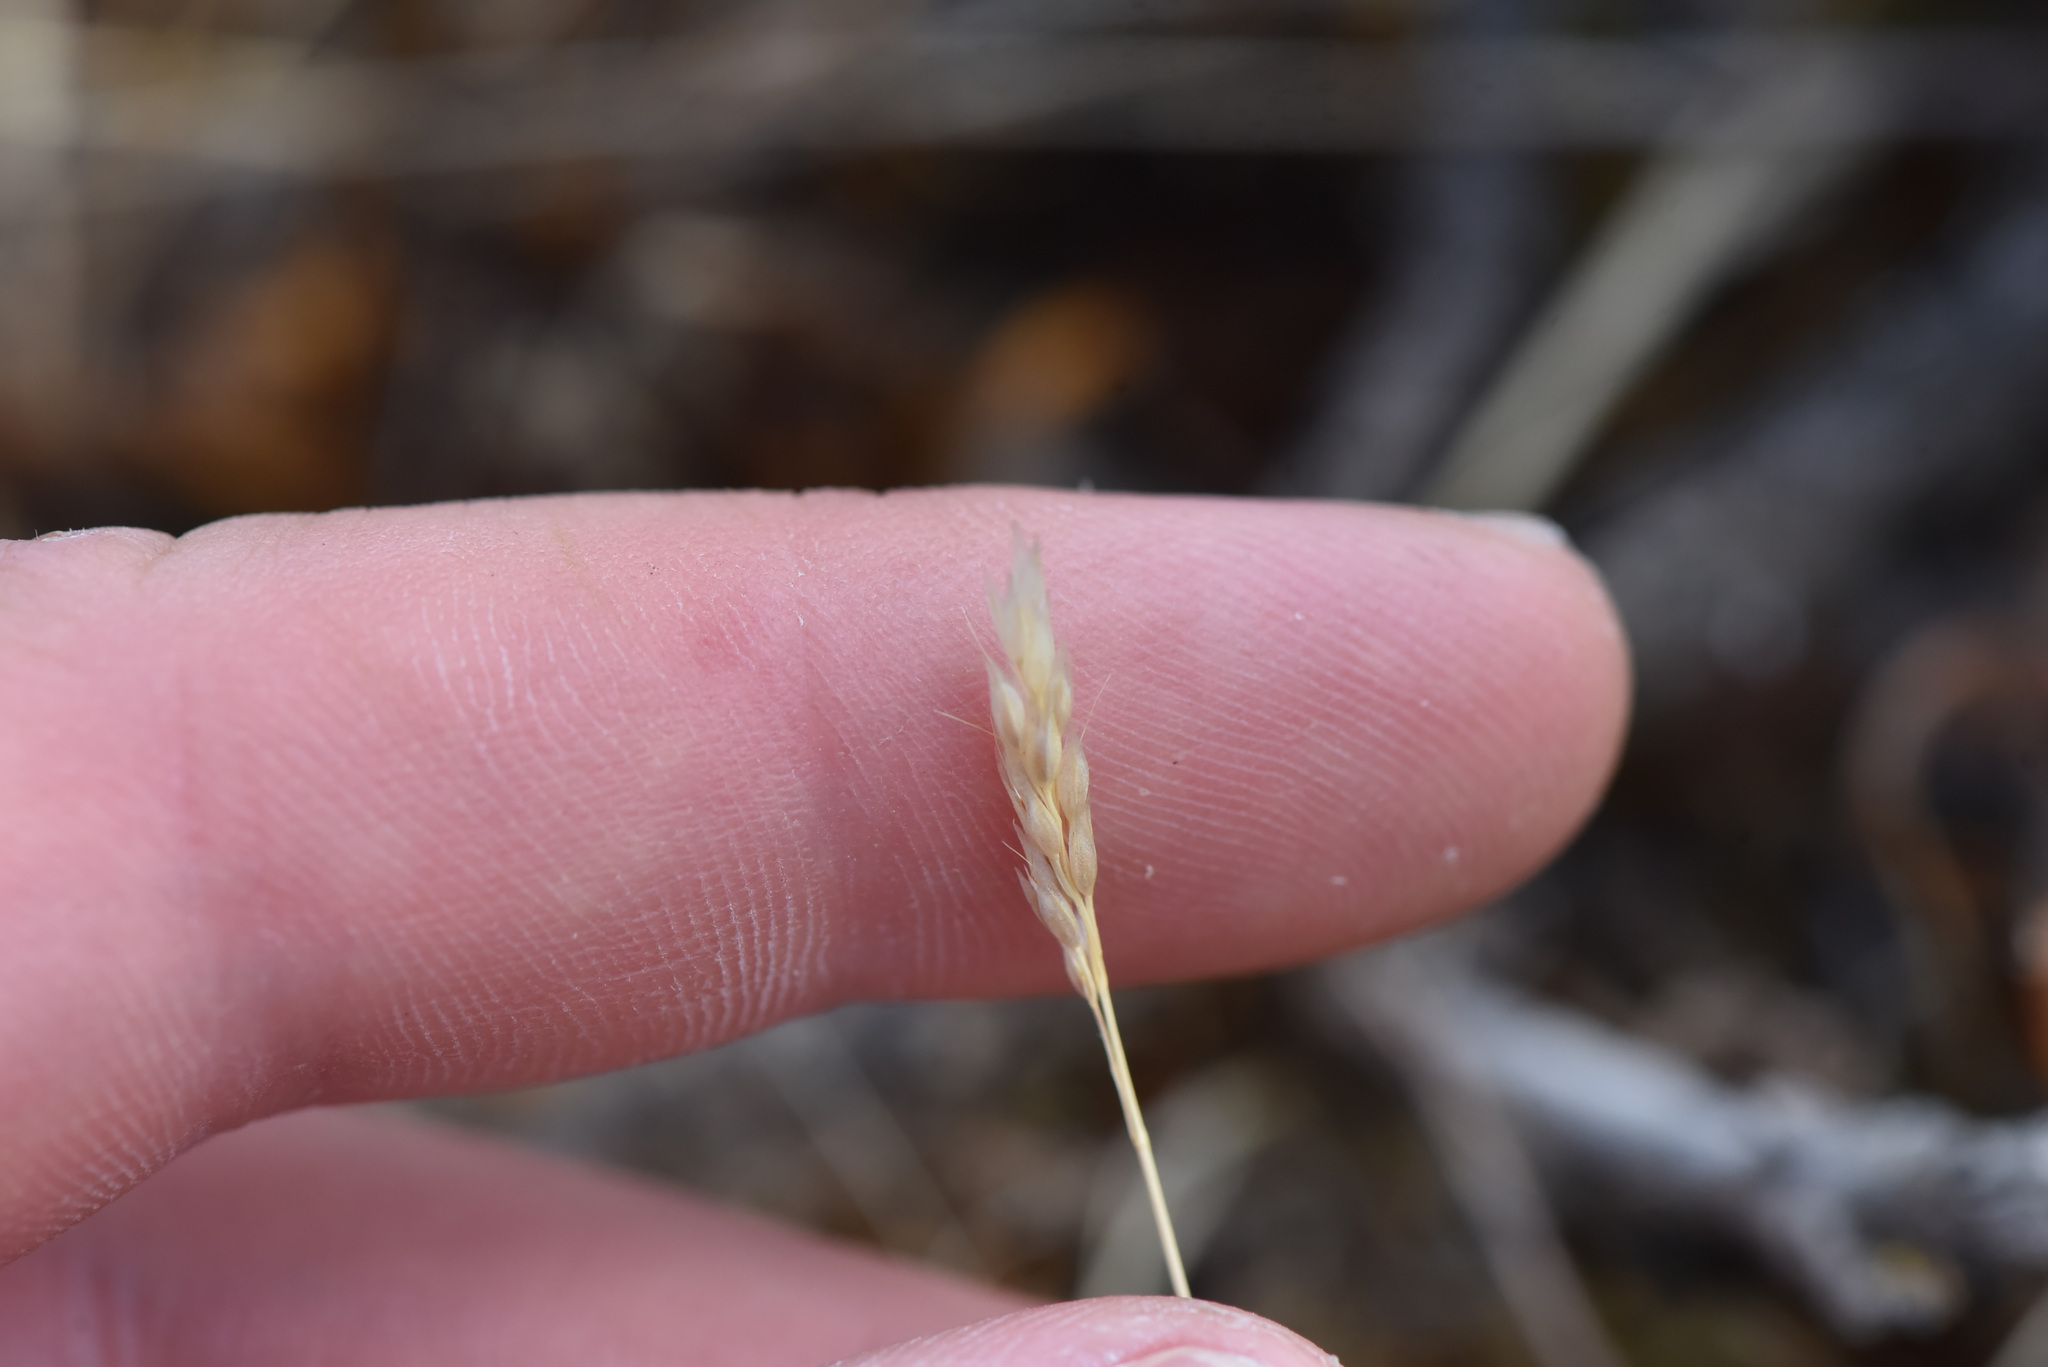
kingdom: Plantae
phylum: Tracheophyta
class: Liliopsida
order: Poales
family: Poaceae
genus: Aira
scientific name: Aira praecox
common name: Early hair-grass
